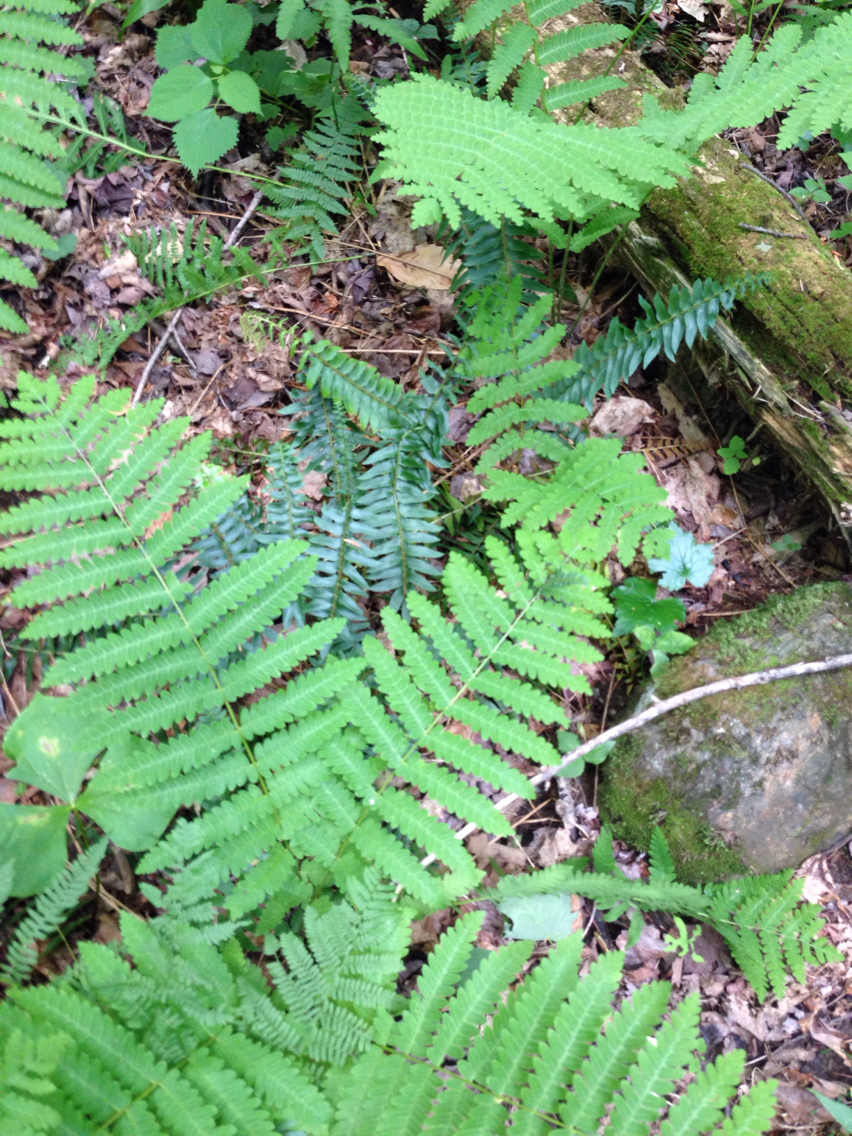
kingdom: Plantae
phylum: Tracheophyta
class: Polypodiopsida
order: Polypodiales
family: Dryopteridaceae
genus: Polystichum
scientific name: Polystichum acrostichoides
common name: Christmas fern
